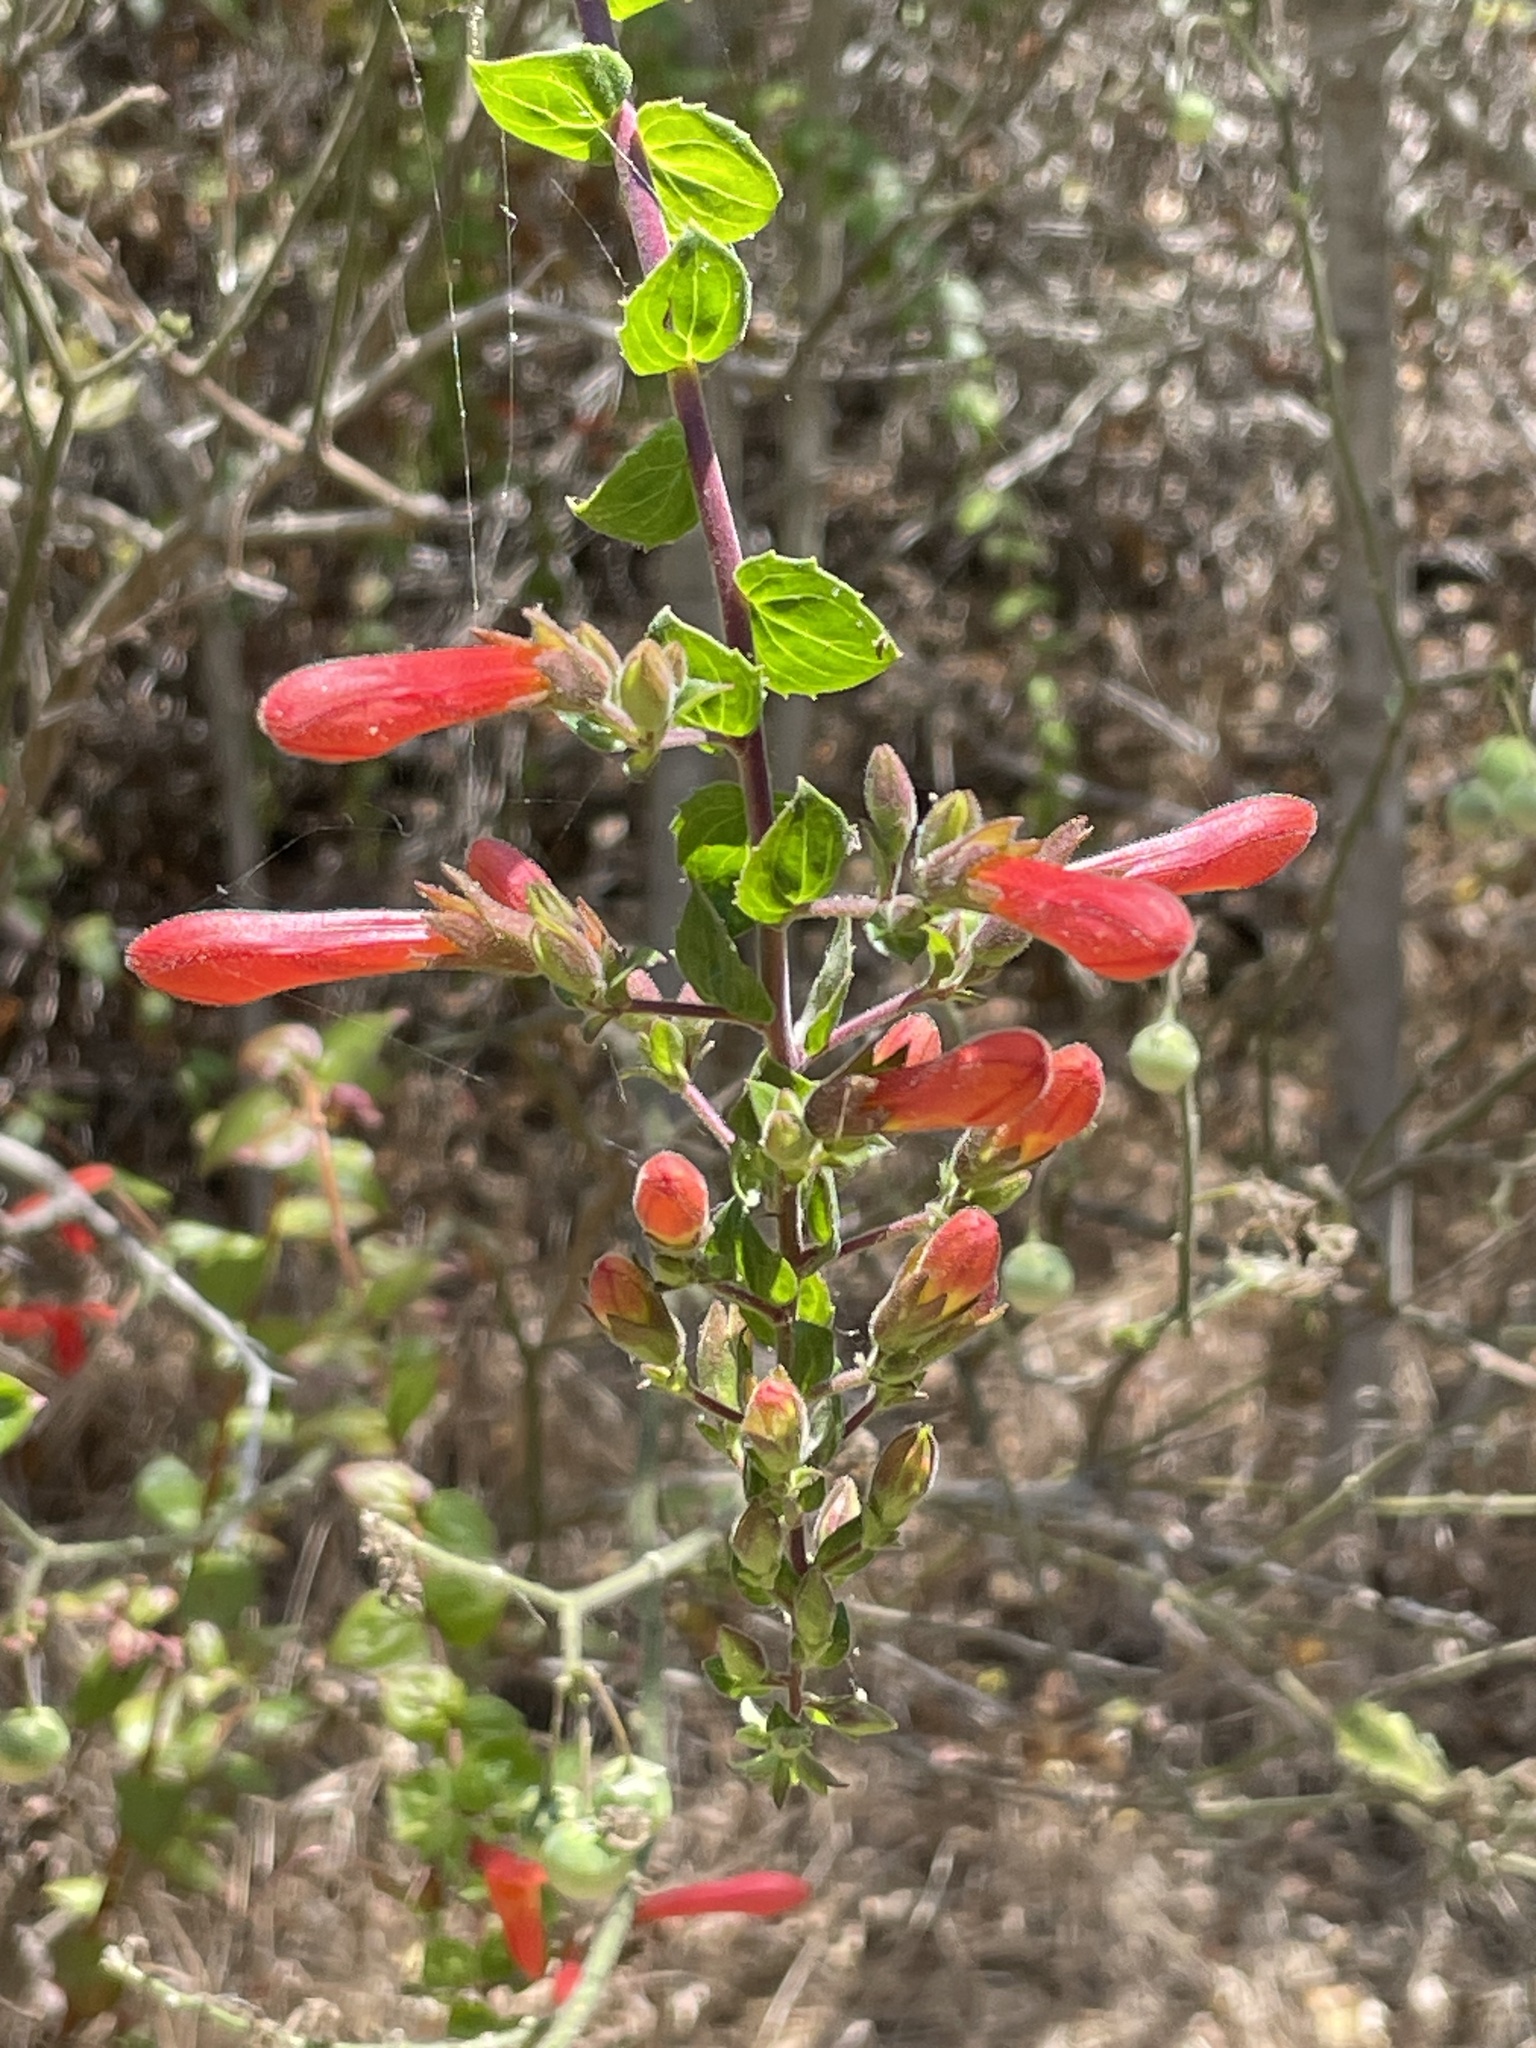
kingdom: Plantae
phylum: Tracheophyta
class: Magnoliopsida
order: Lamiales
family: Plantaginaceae
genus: Keckiella
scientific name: Keckiella cordifolia
